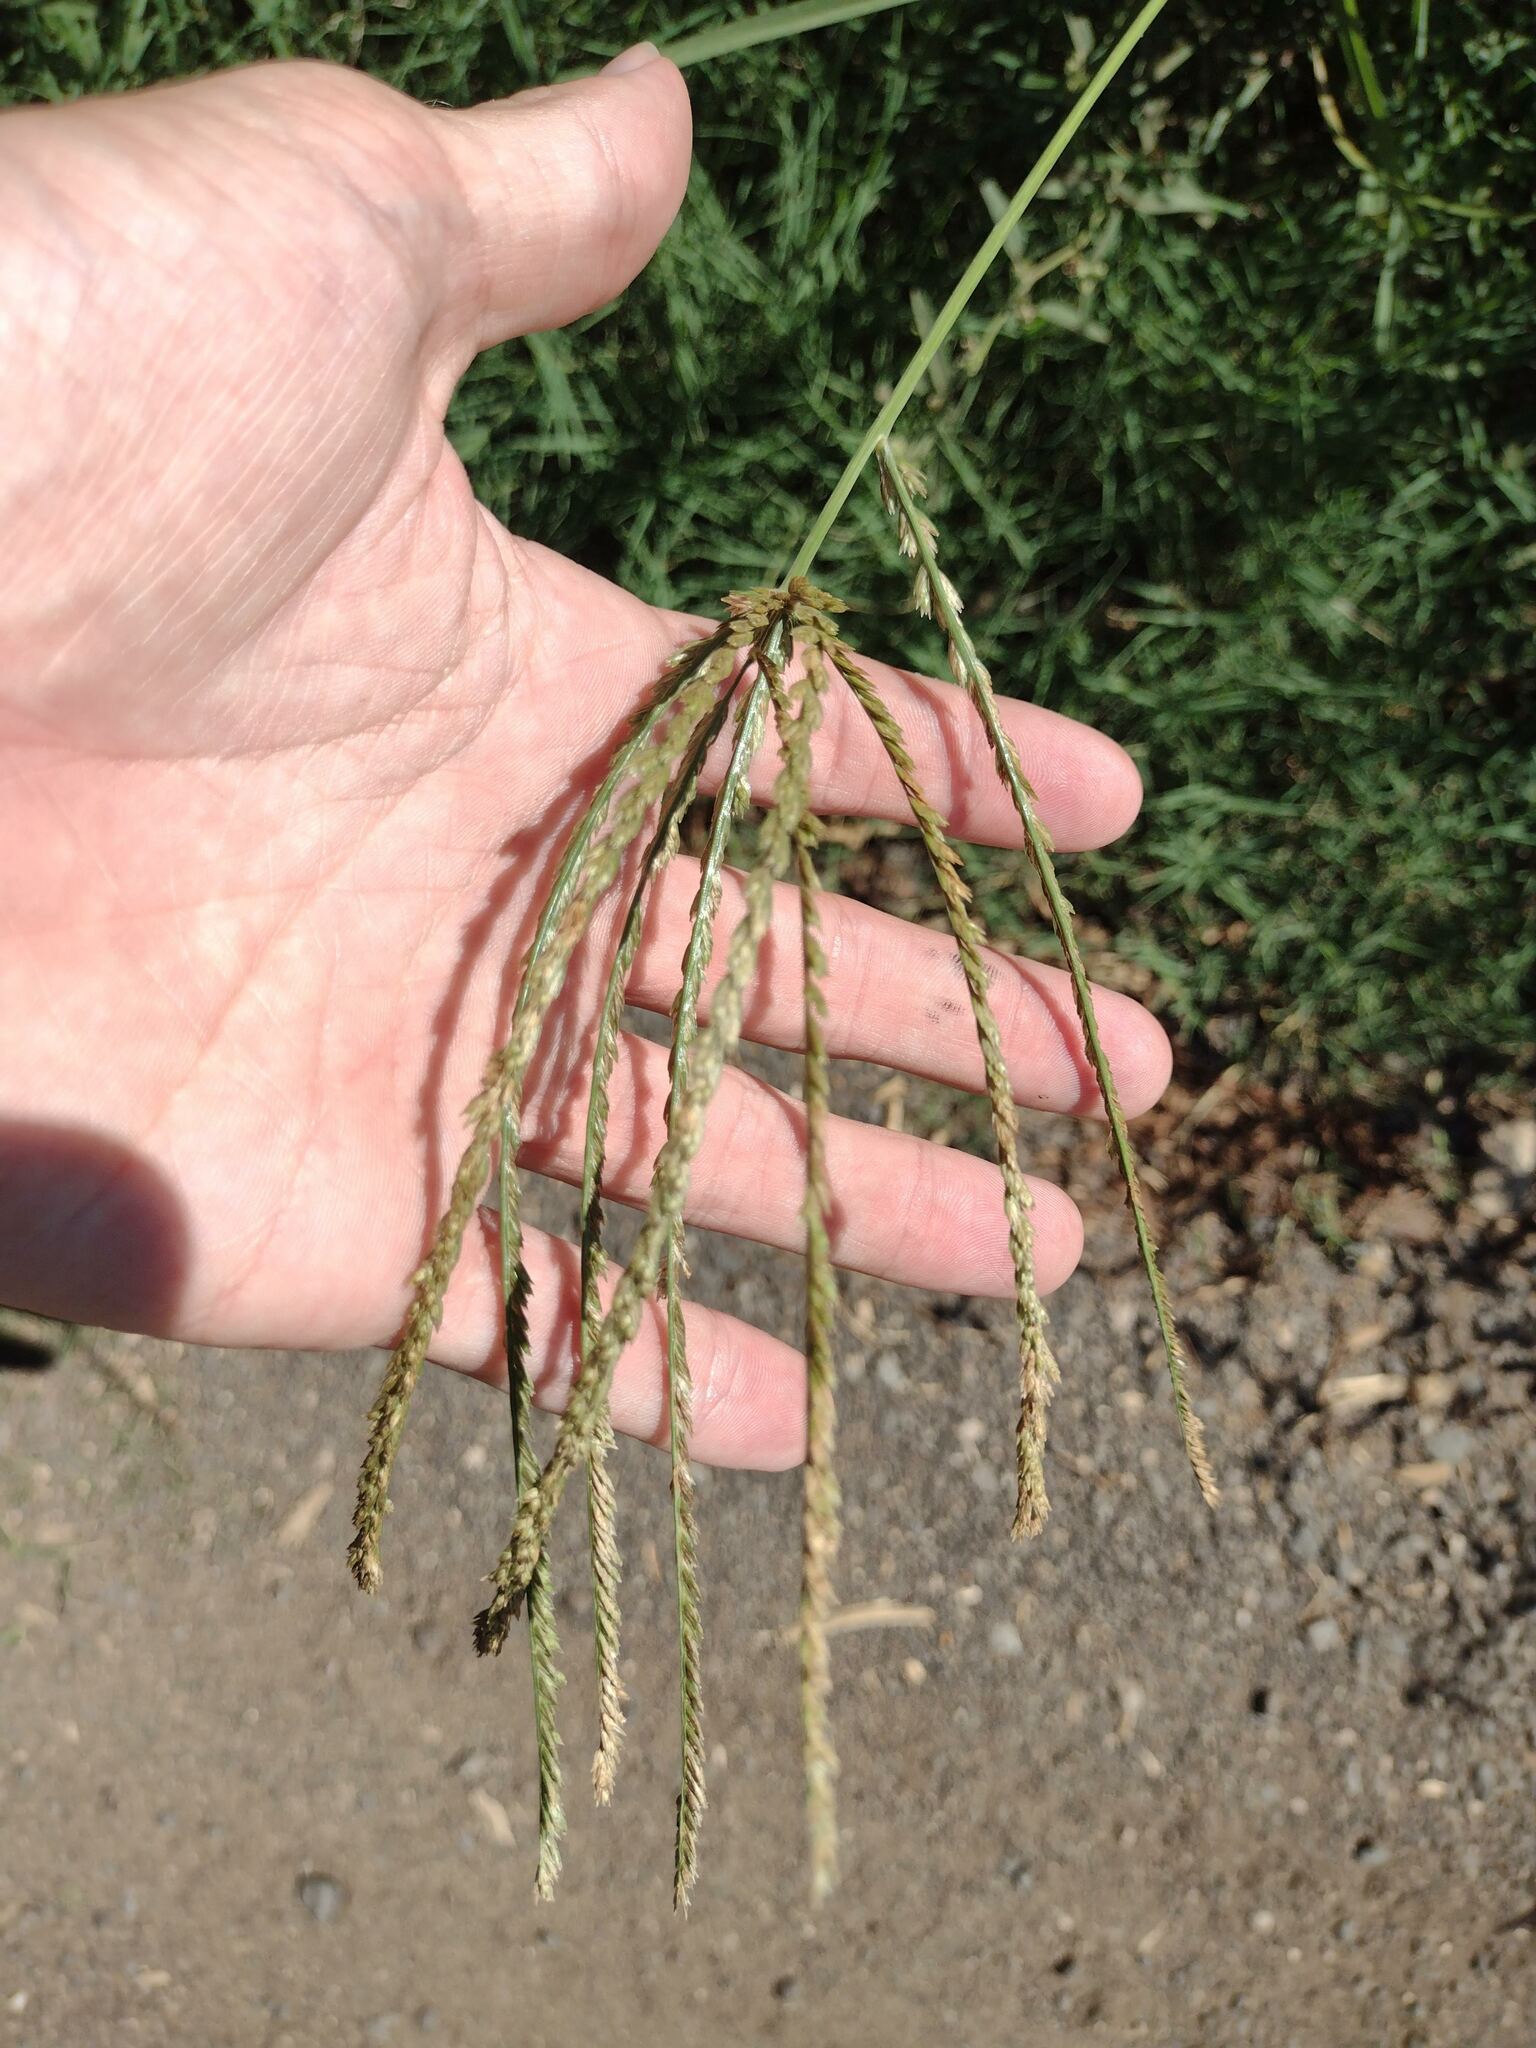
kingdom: Plantae
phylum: Tracheophyta
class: Liliopsida
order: Poales
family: Poaceae
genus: Eleusine
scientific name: Eleusine indica
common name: Yard-grass
